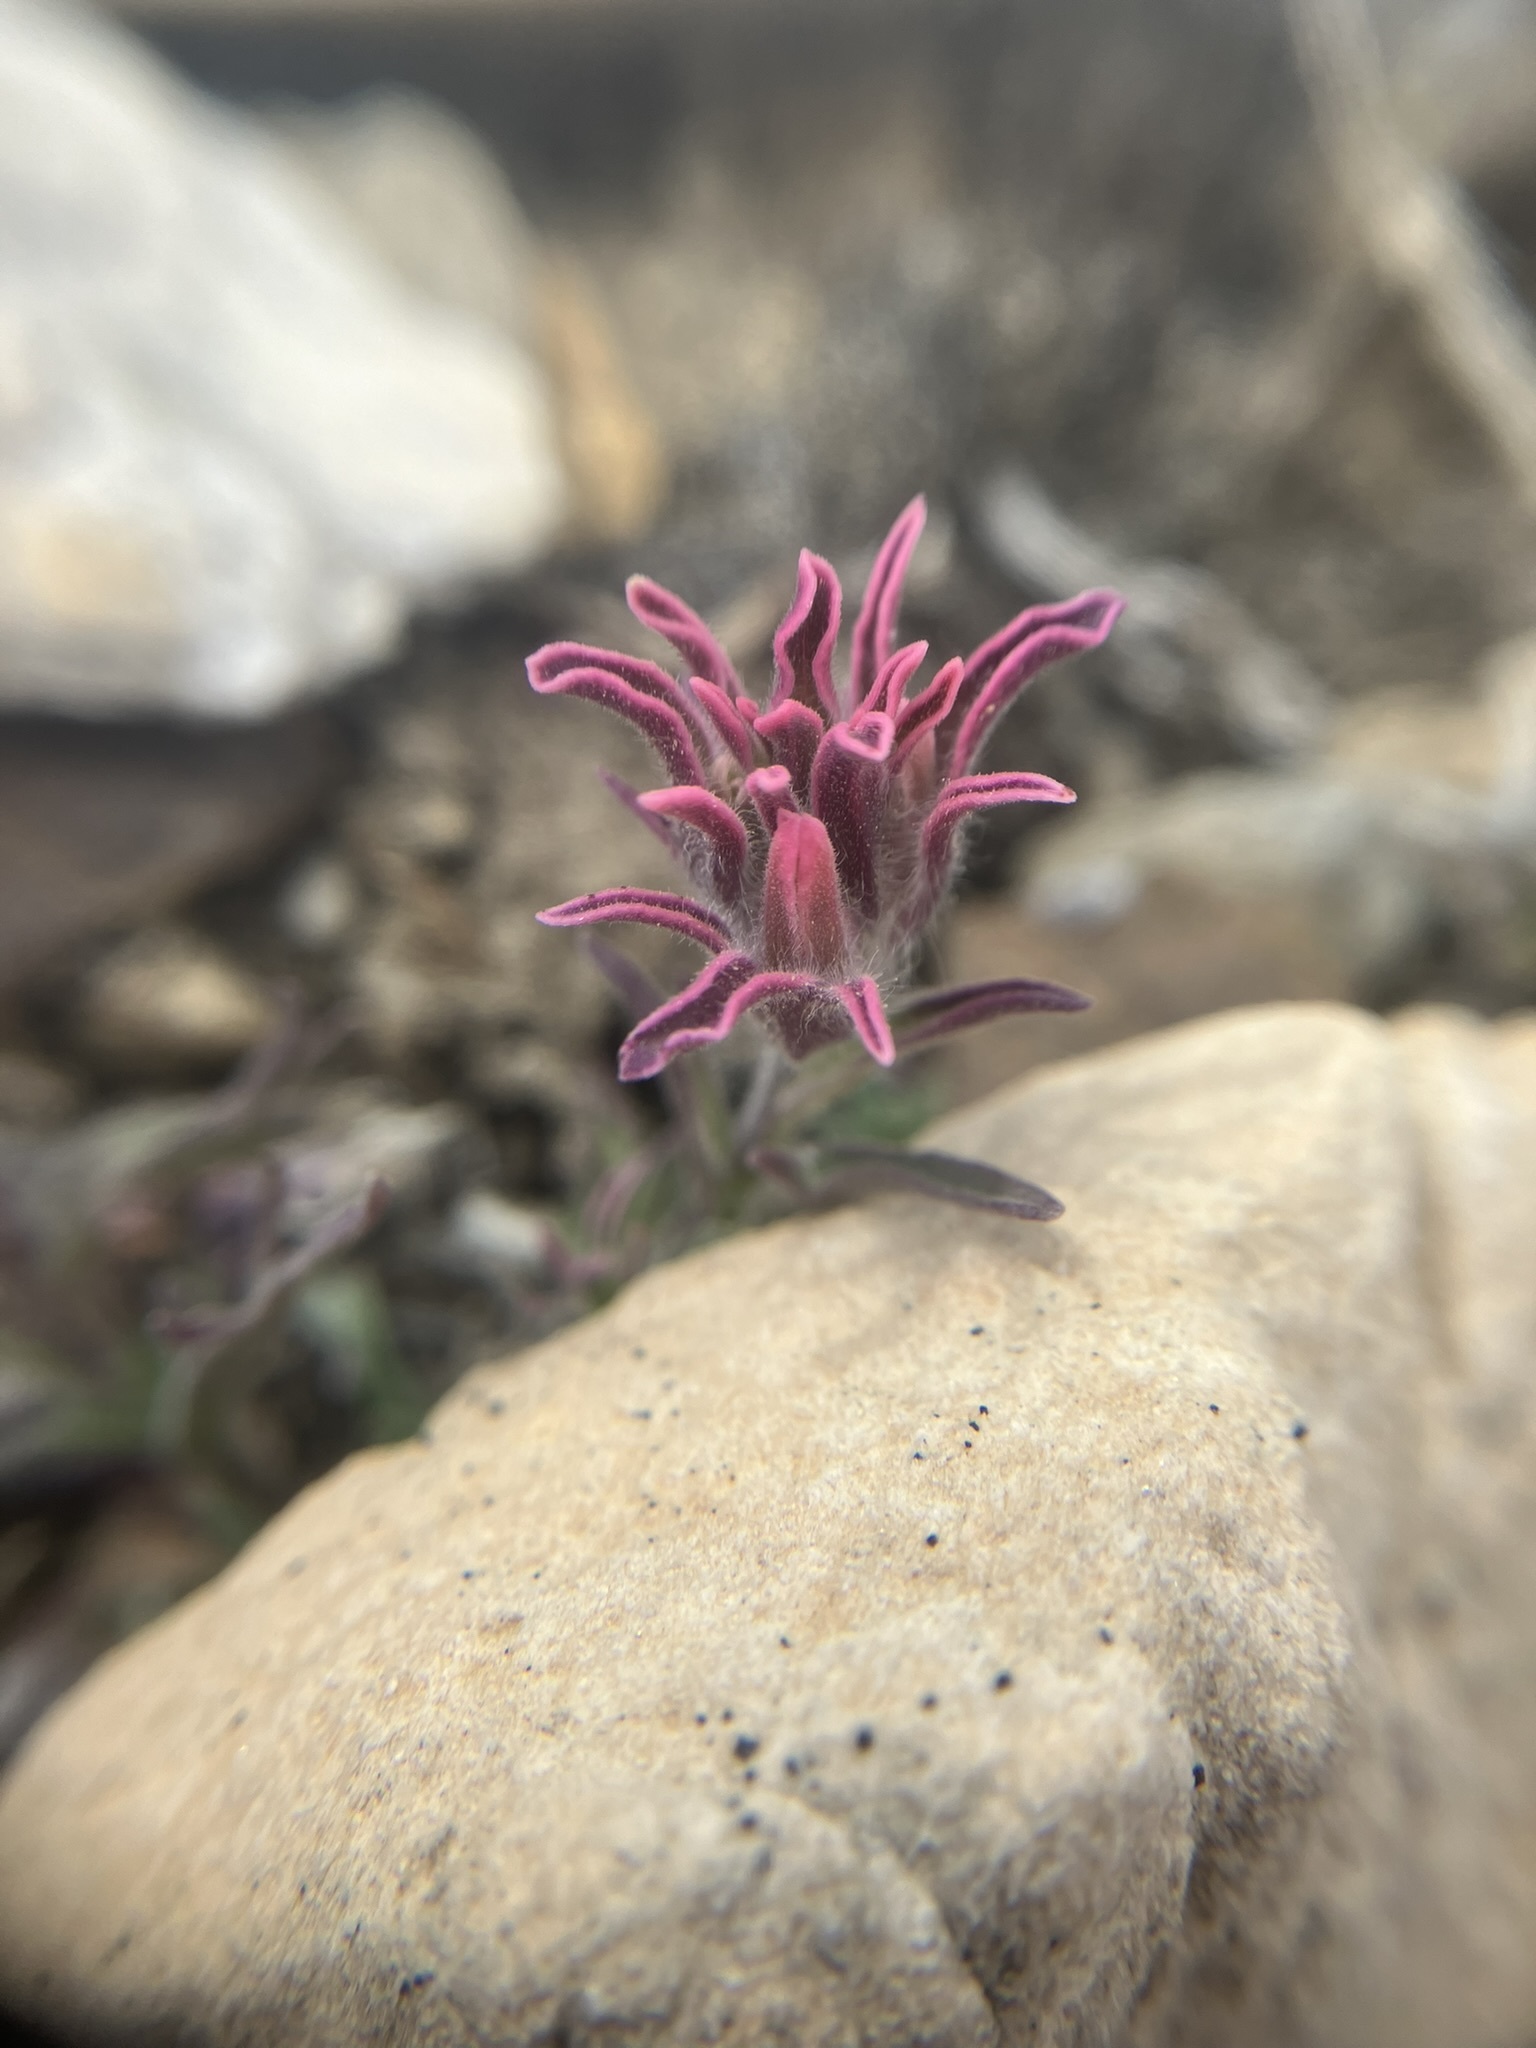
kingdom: Plantae
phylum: Tracheophyta
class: Magnoliopsida
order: Lamiales
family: Orobanchaceae
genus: Castilleja
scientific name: Castilleja nana
